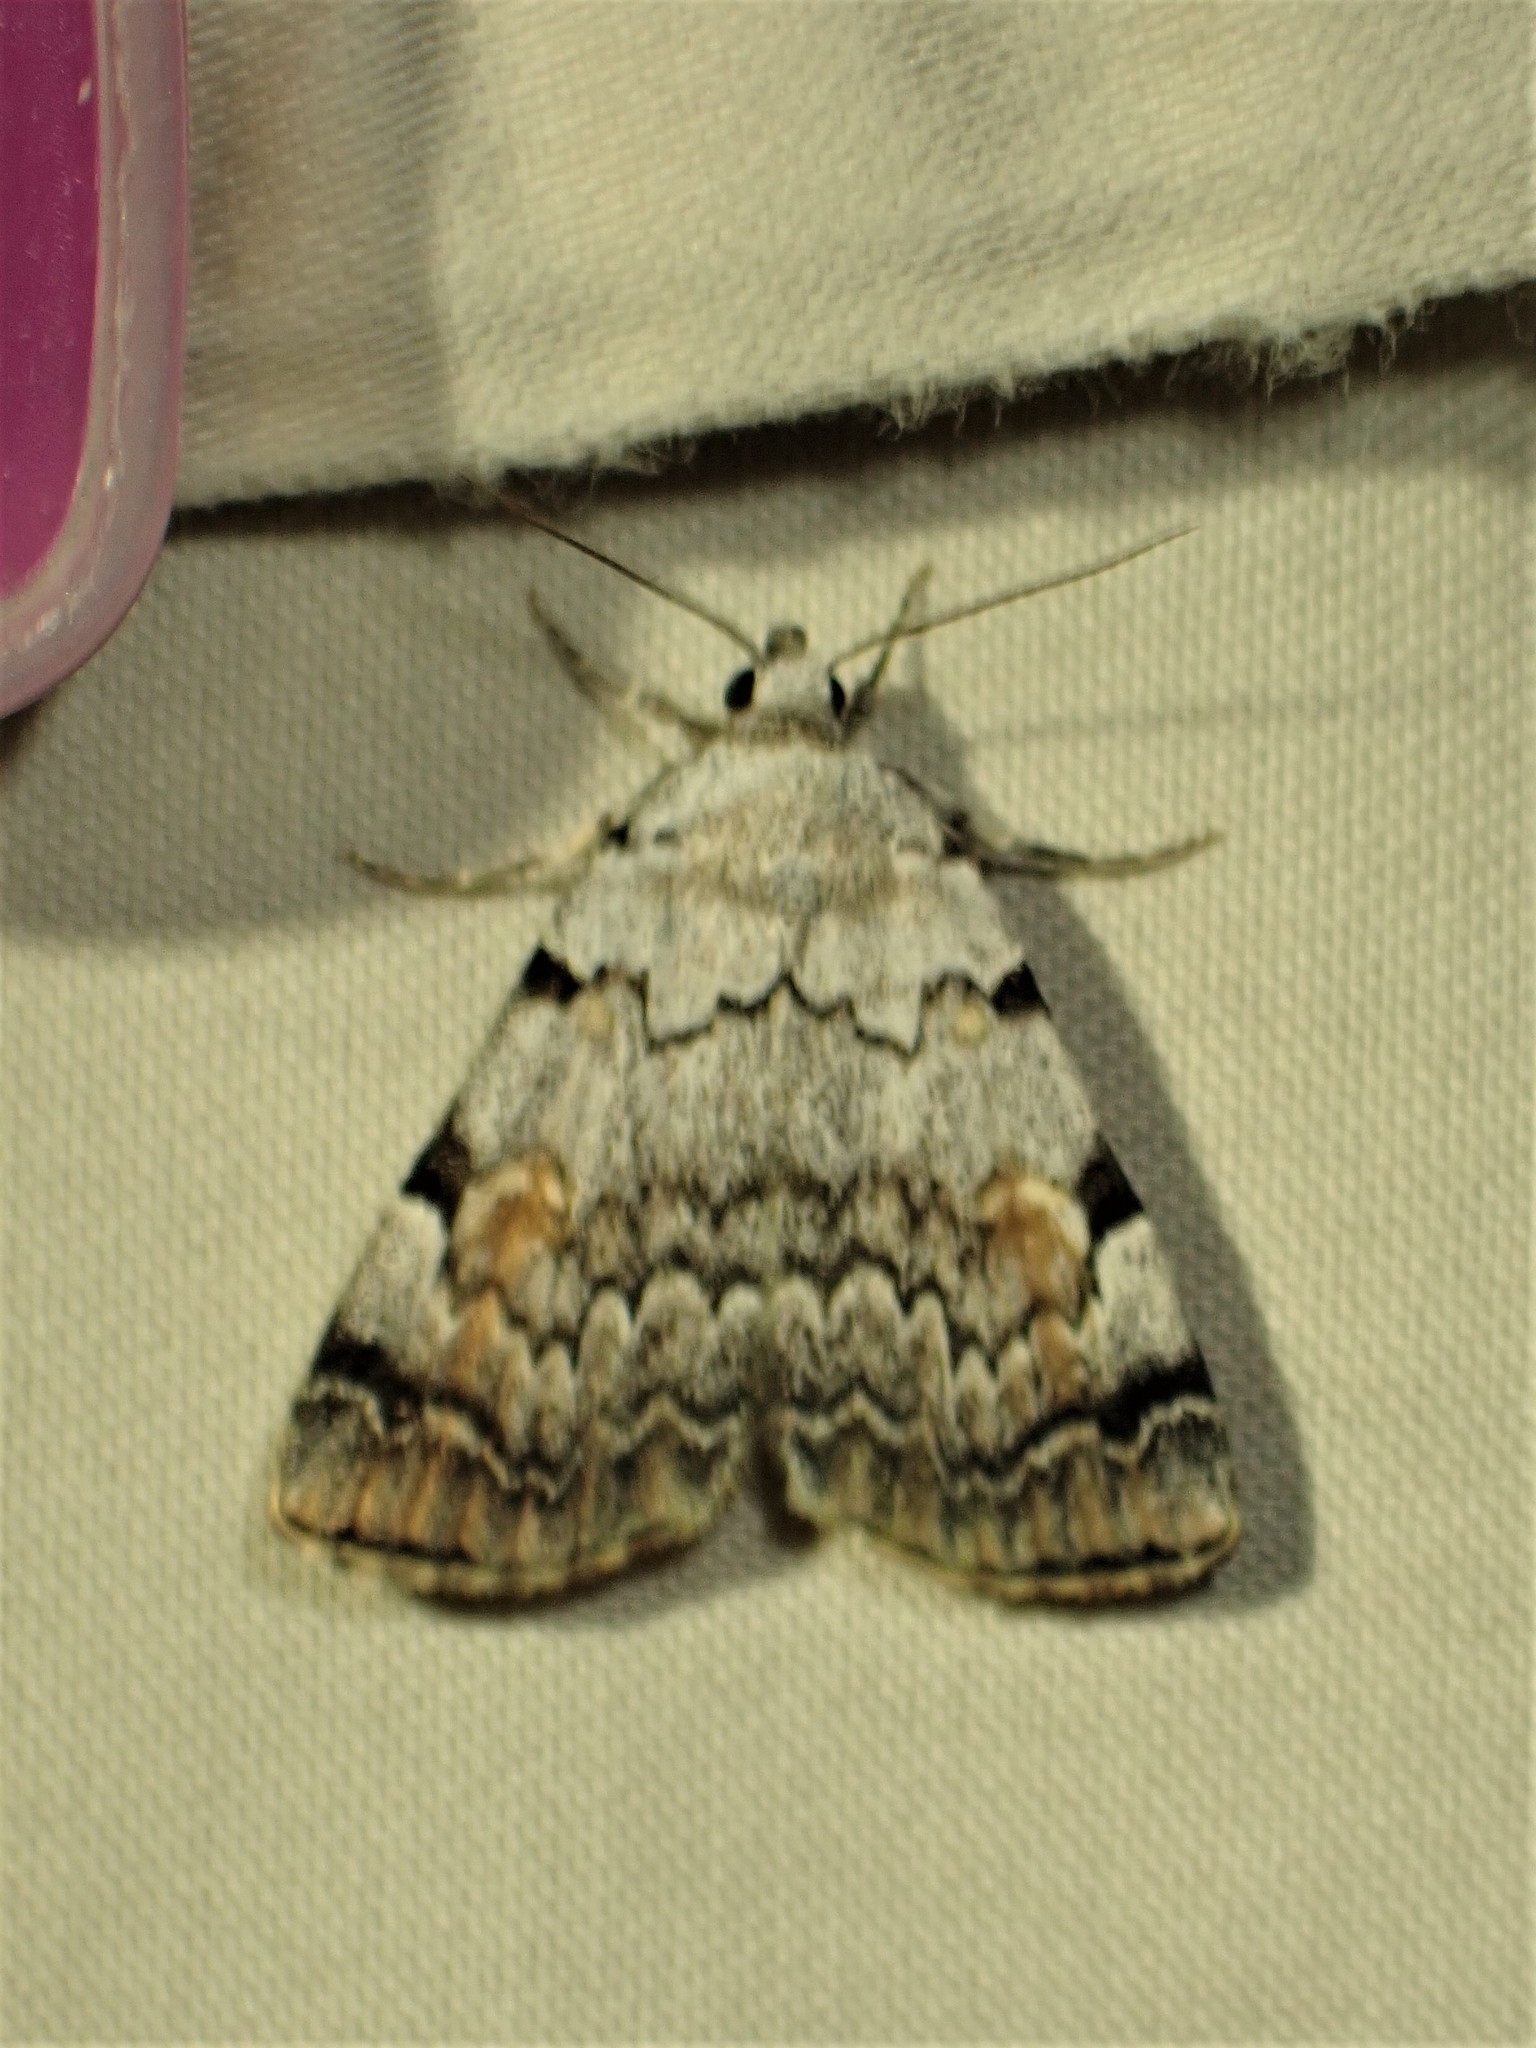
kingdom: Animalia
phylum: Arthropoda
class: Insecta
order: Lepidoptera
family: Erebidae
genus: Idia
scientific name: Idia americalis
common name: American idia moth
